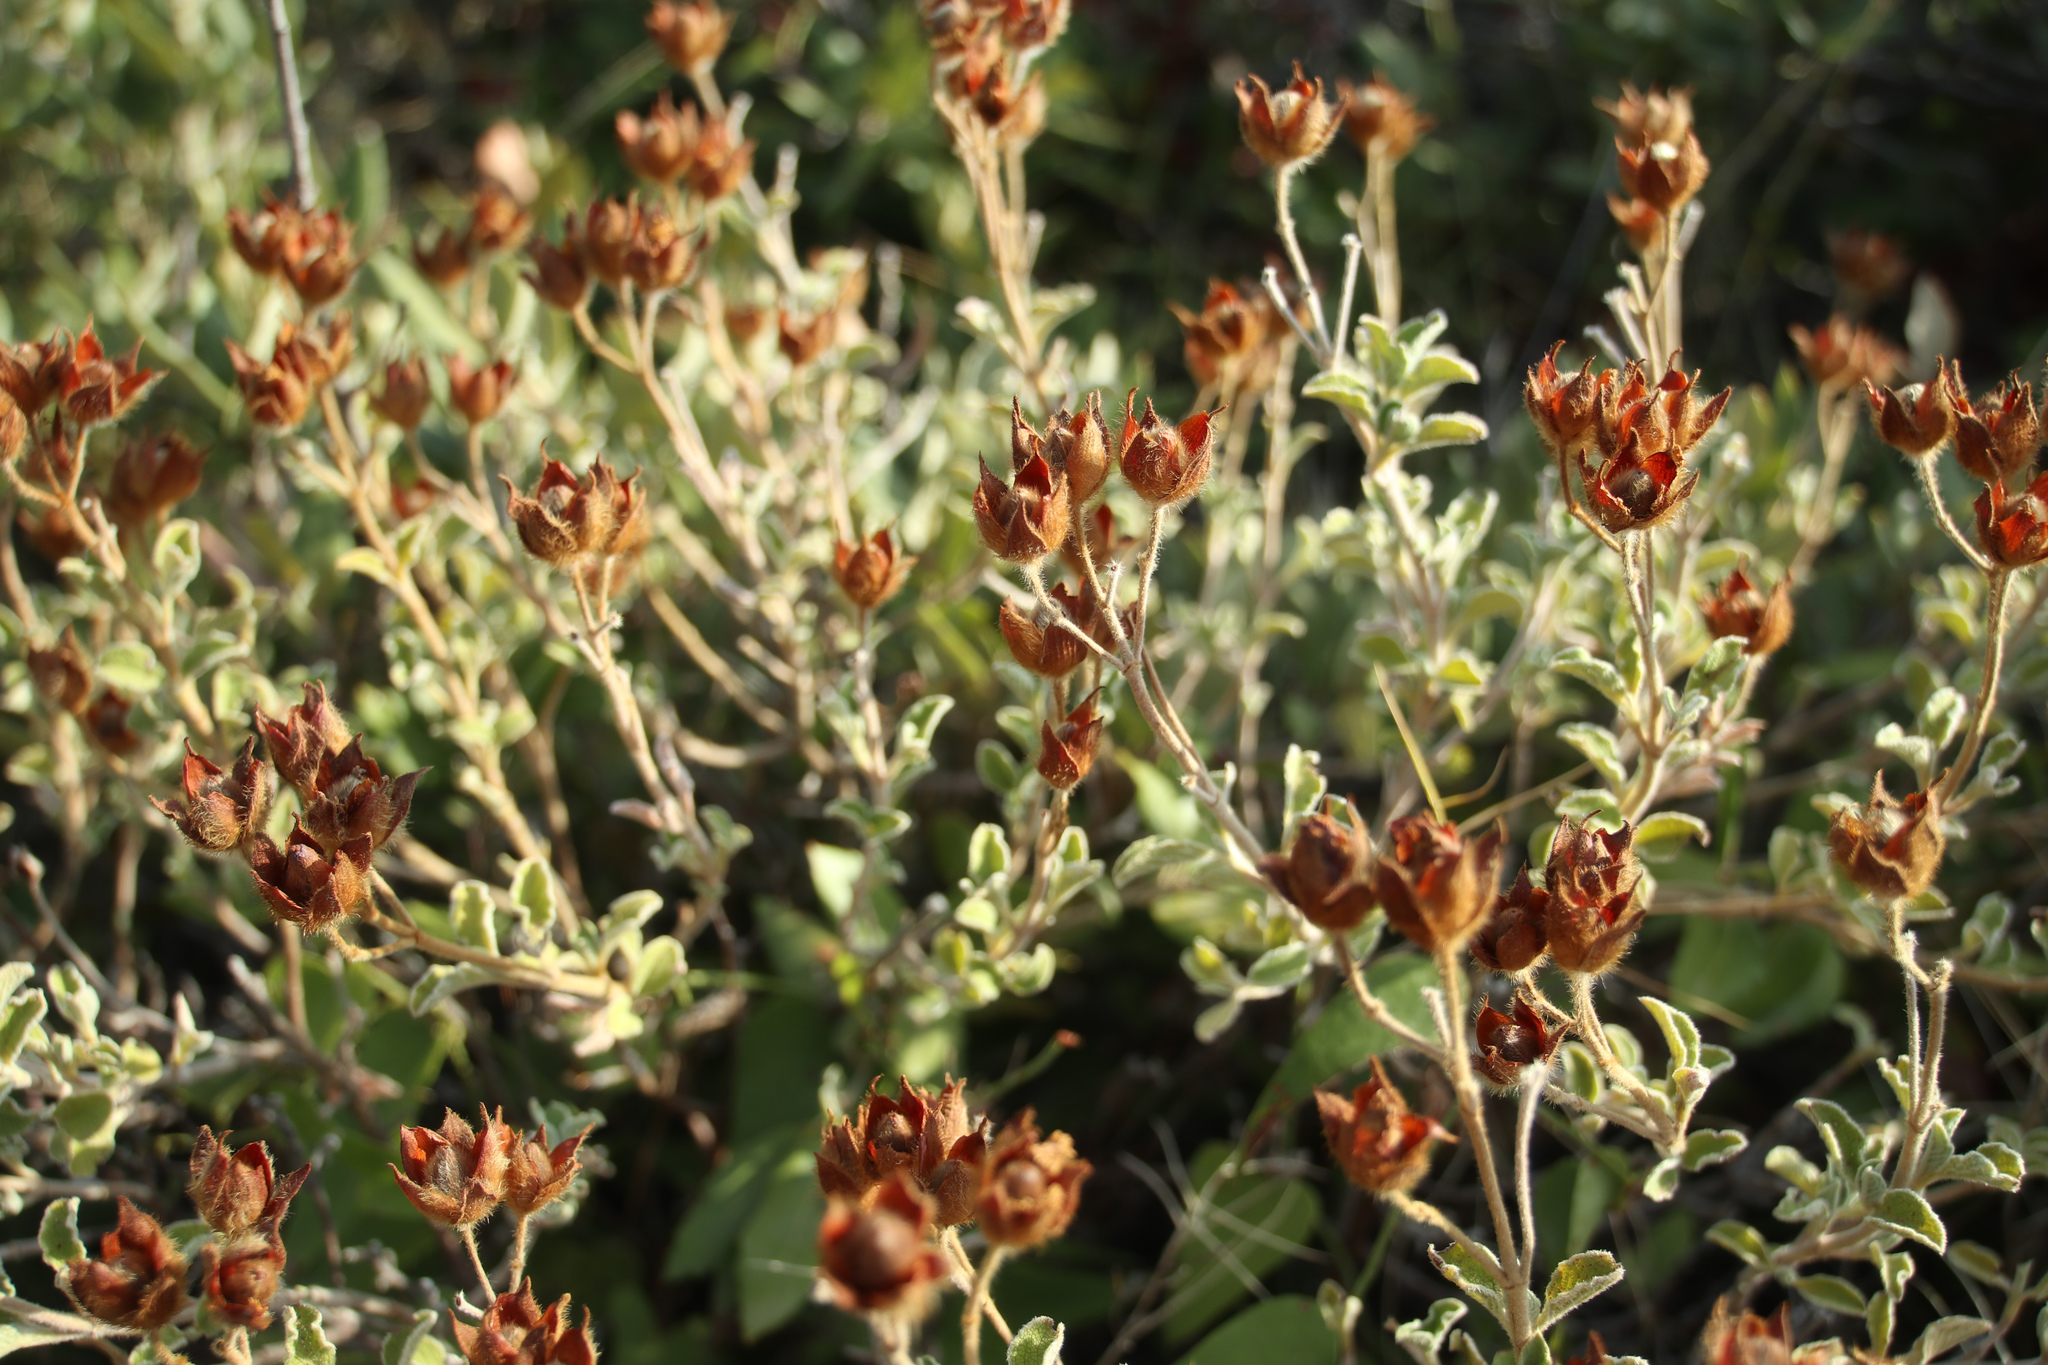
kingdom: Plantae
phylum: Tracheophyta
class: Magnoliopsida
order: Malvales
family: Cistaceae
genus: Cistus
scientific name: Cistus creticus
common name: Cretan rockrose
